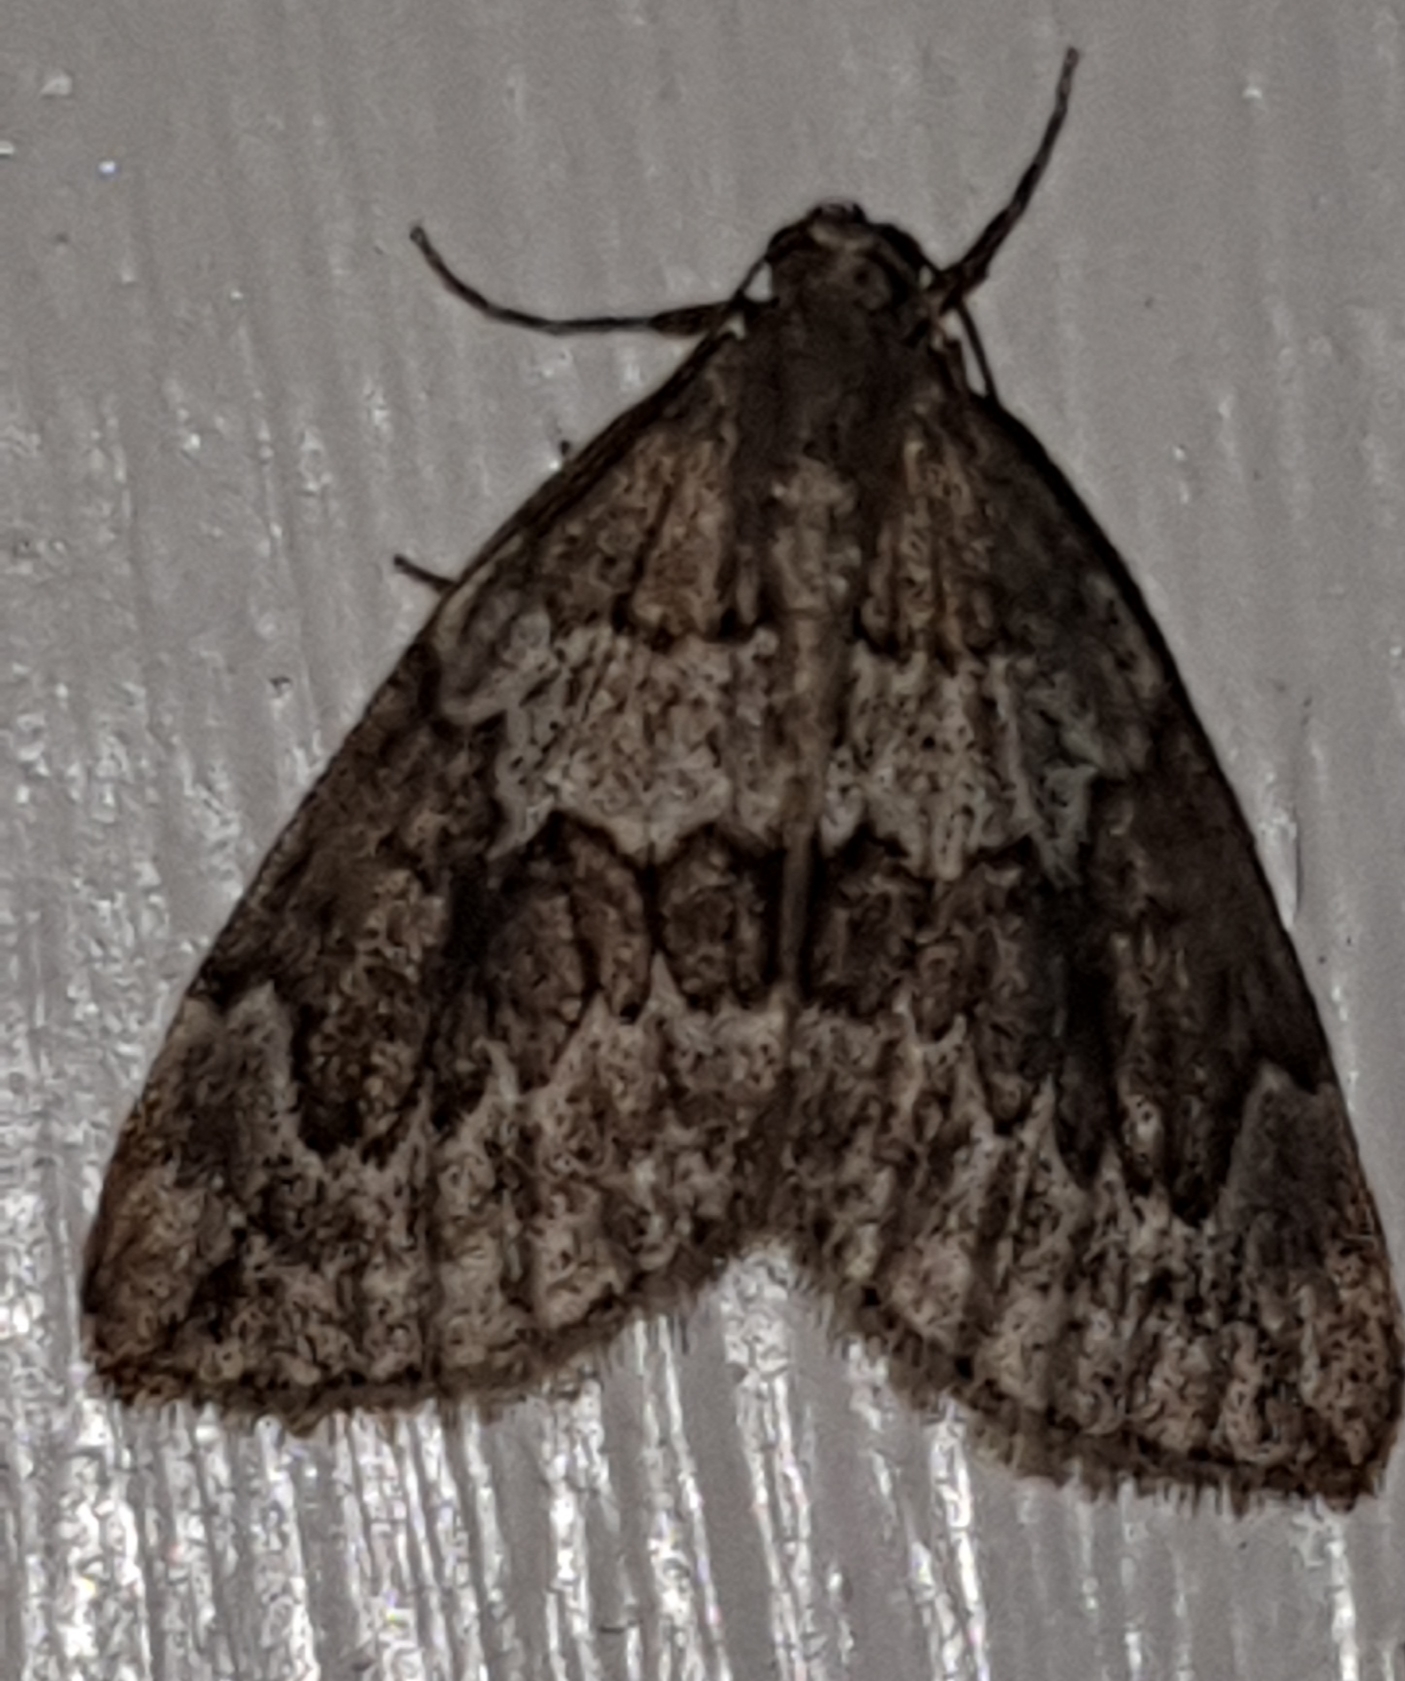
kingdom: Animalia
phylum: Arthropoda
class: Insecta
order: Lepidoptera
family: Geometridae
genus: Thera
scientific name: Thera juniperata
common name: Juniper carpet
